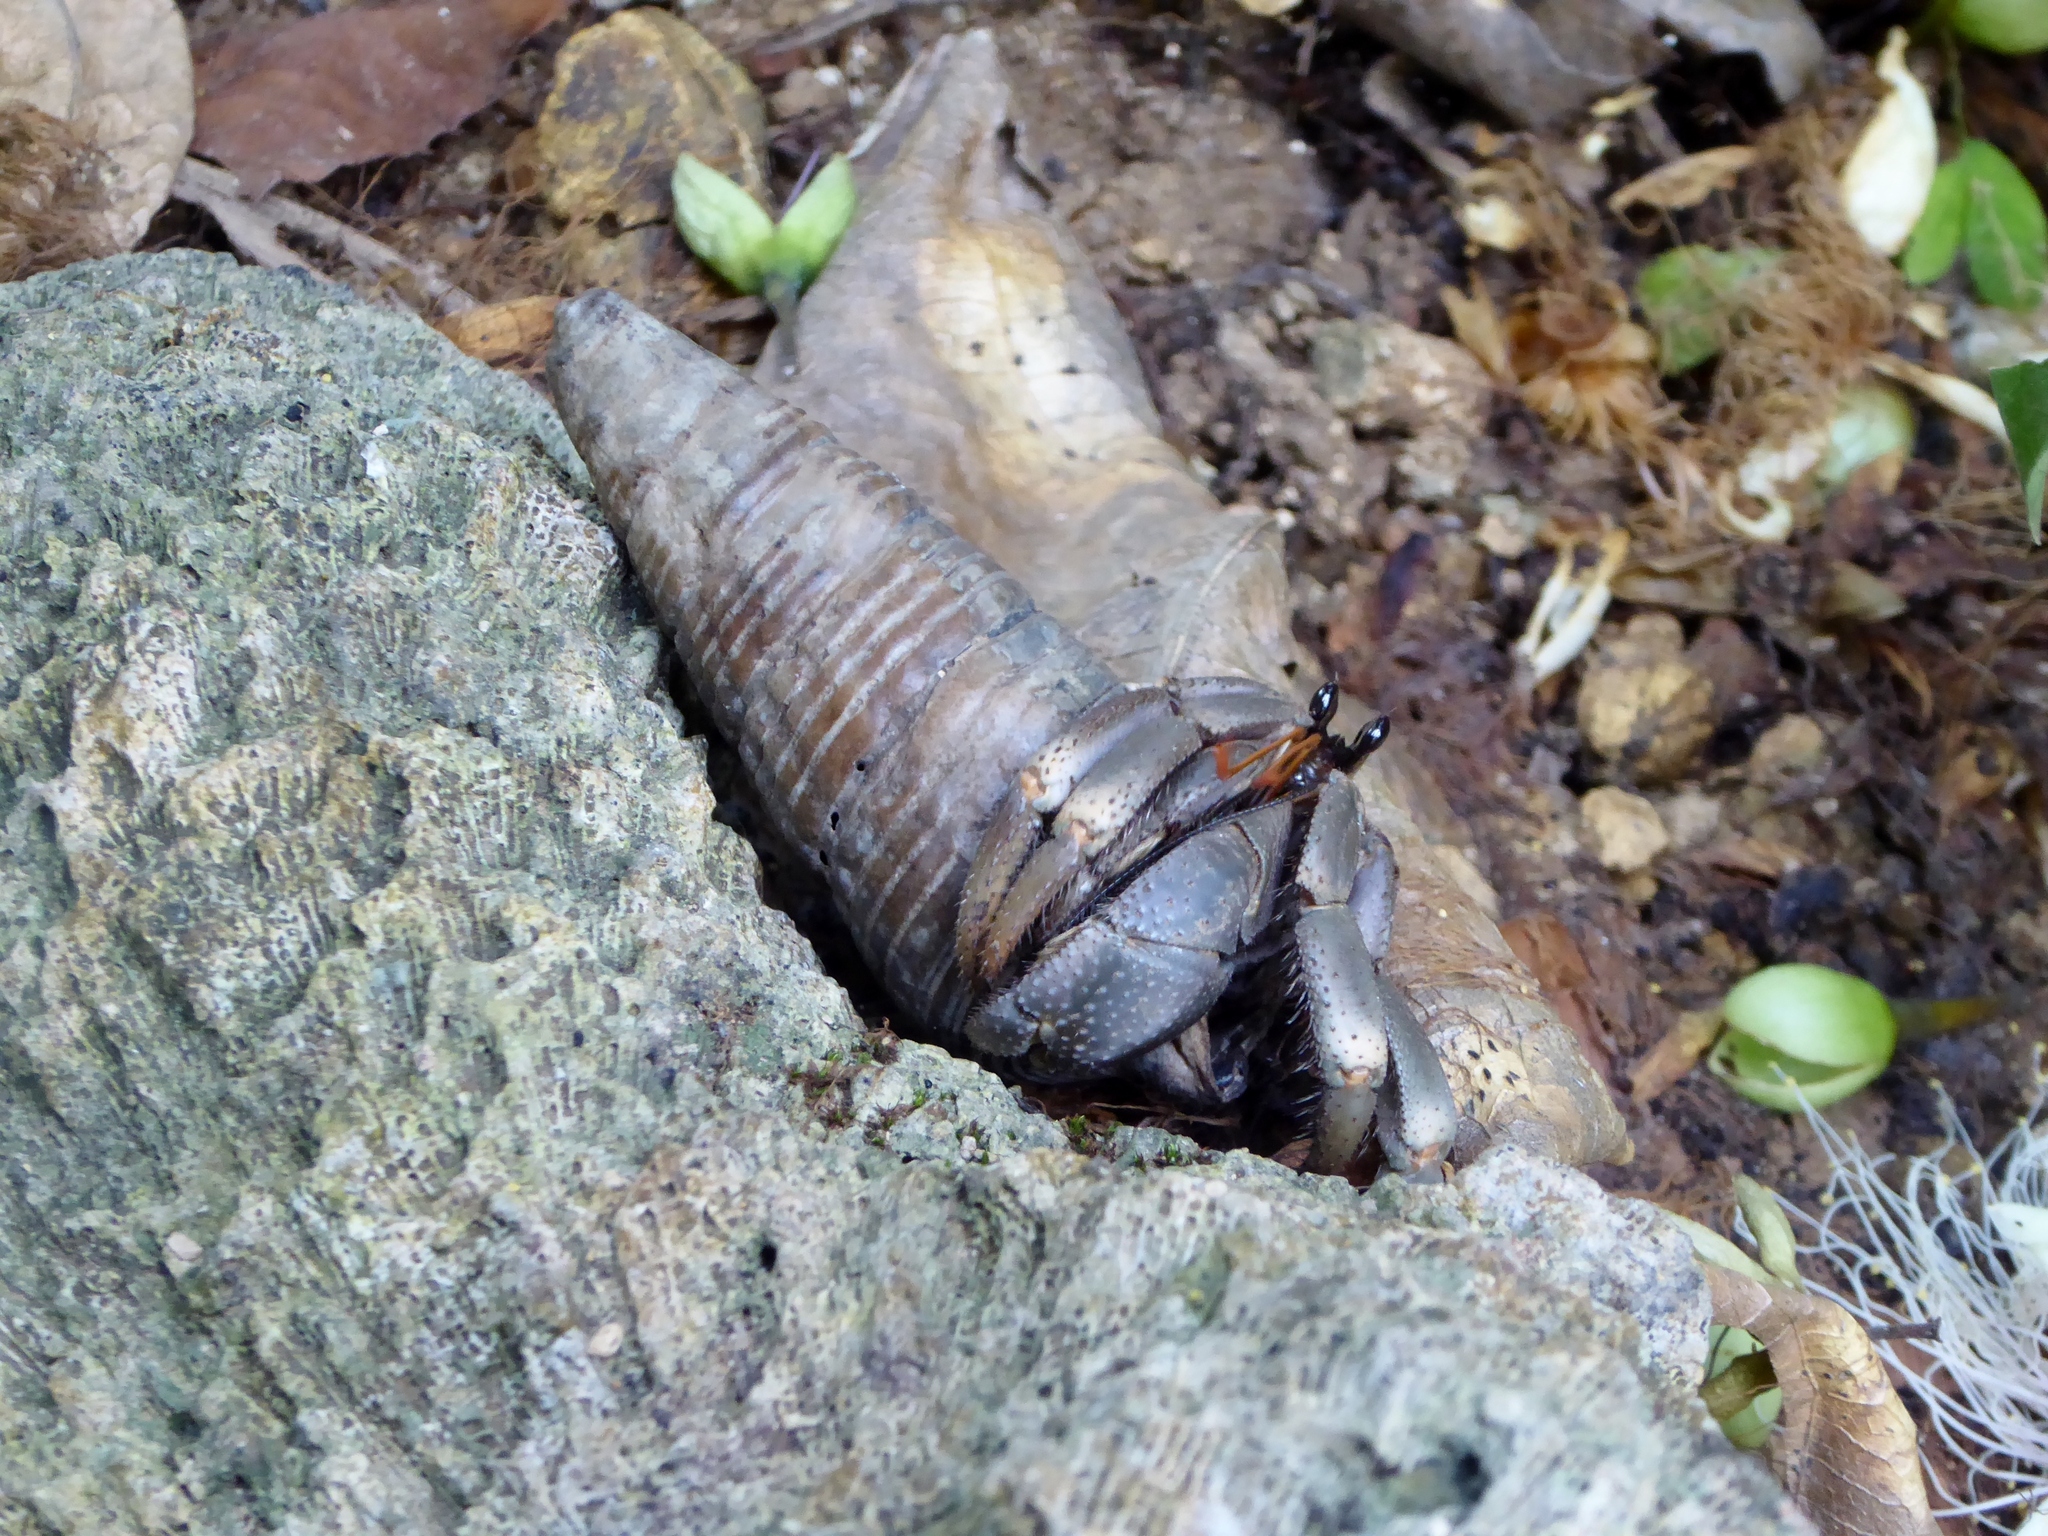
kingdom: Animalia
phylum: Arthropoda
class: Malacostraca
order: Decapoda
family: Coenobitidae
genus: Coenobita
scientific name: Coenobita violascens
